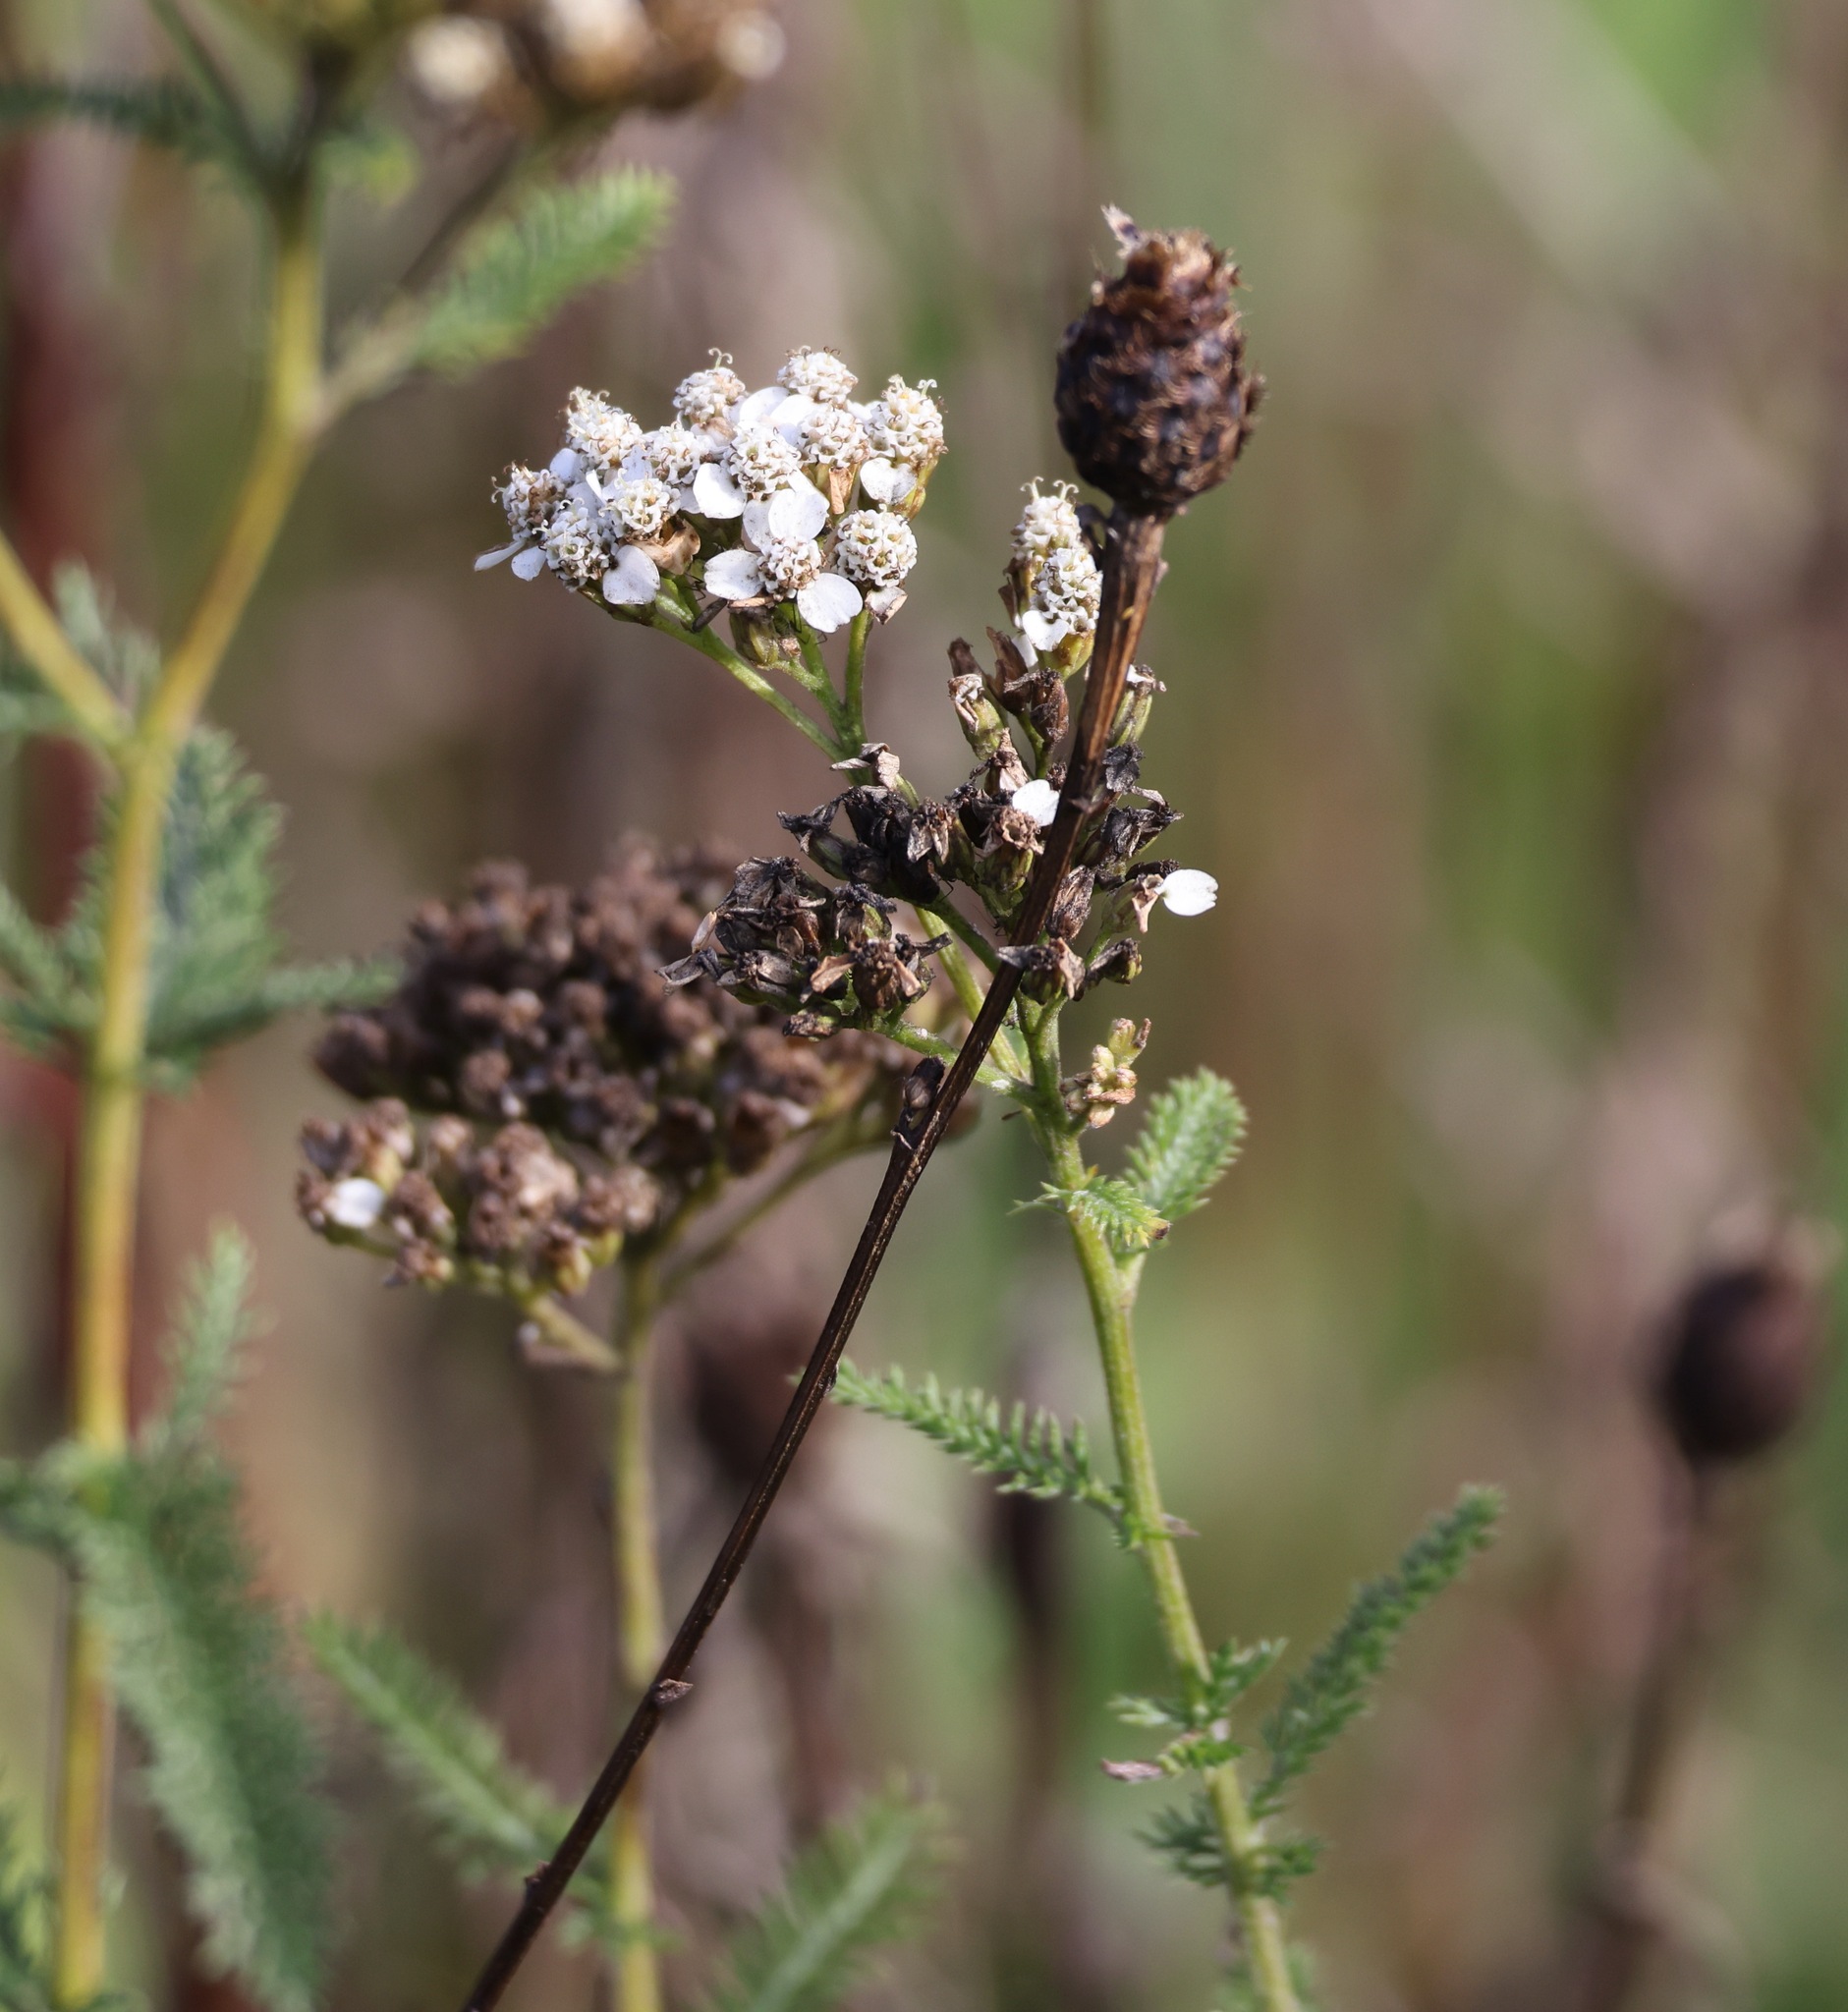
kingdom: Plantae
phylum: Tracheophyta
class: Magnoliopsida
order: Asterales
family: Asteraceae
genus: Achillea
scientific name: Achillea millefolium
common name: Yarrow
